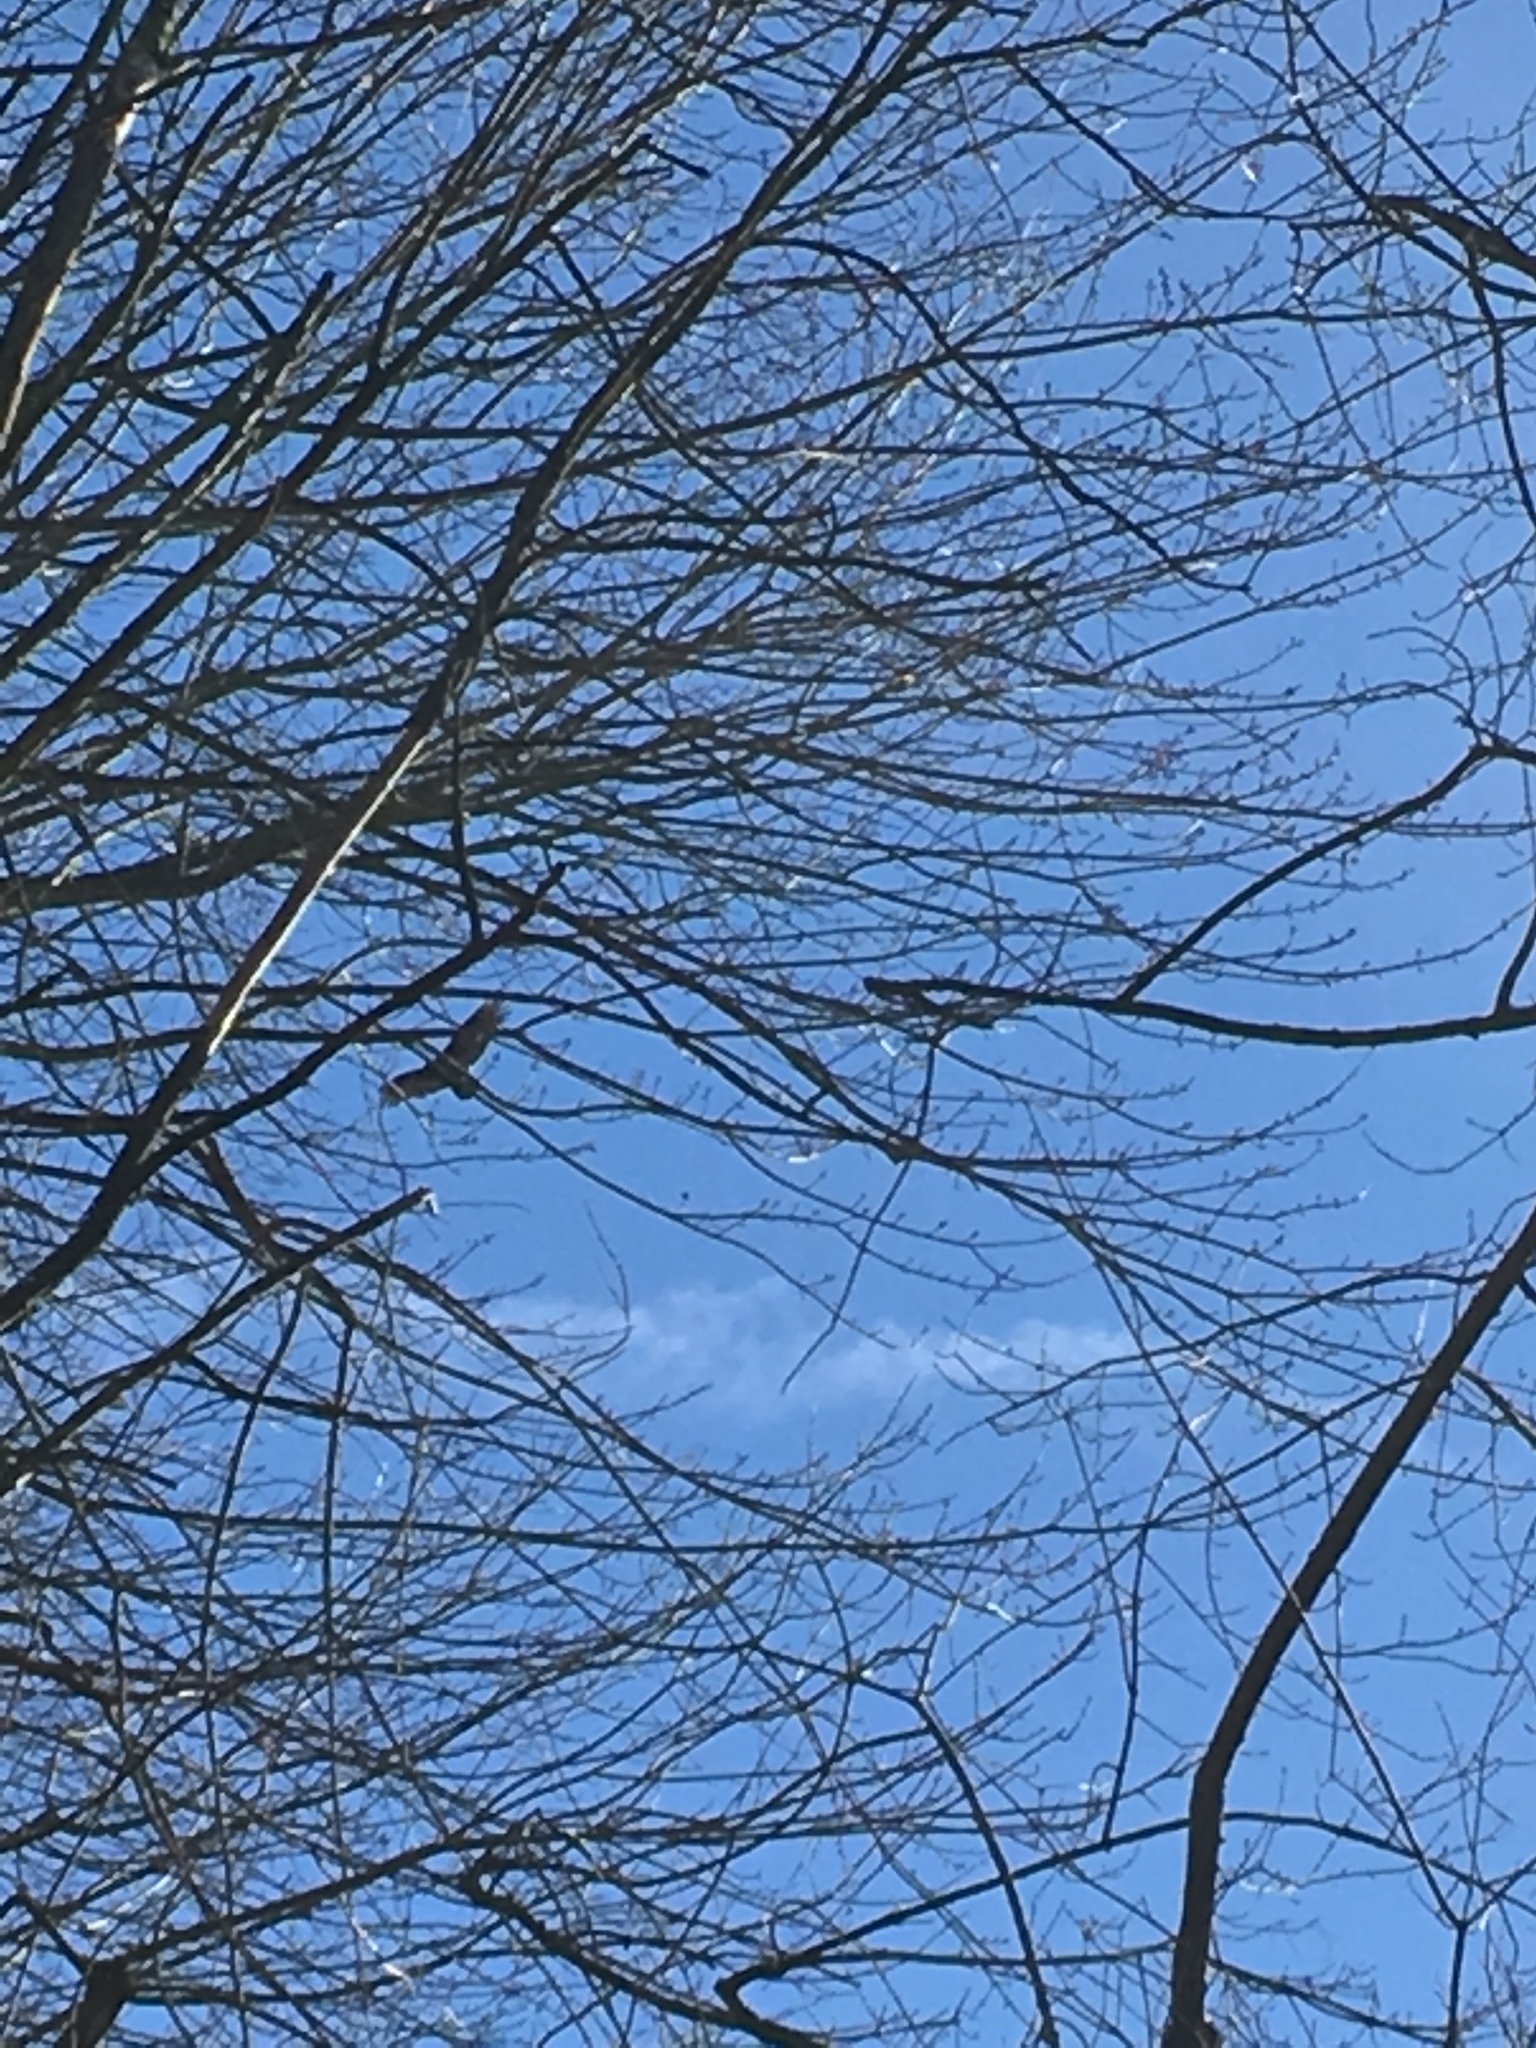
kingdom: Animalia
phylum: Chordata
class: Aves
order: Accipitriformes
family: Cathartidae
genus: Cathartes
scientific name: Cathartes aura
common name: Turkey vulture
